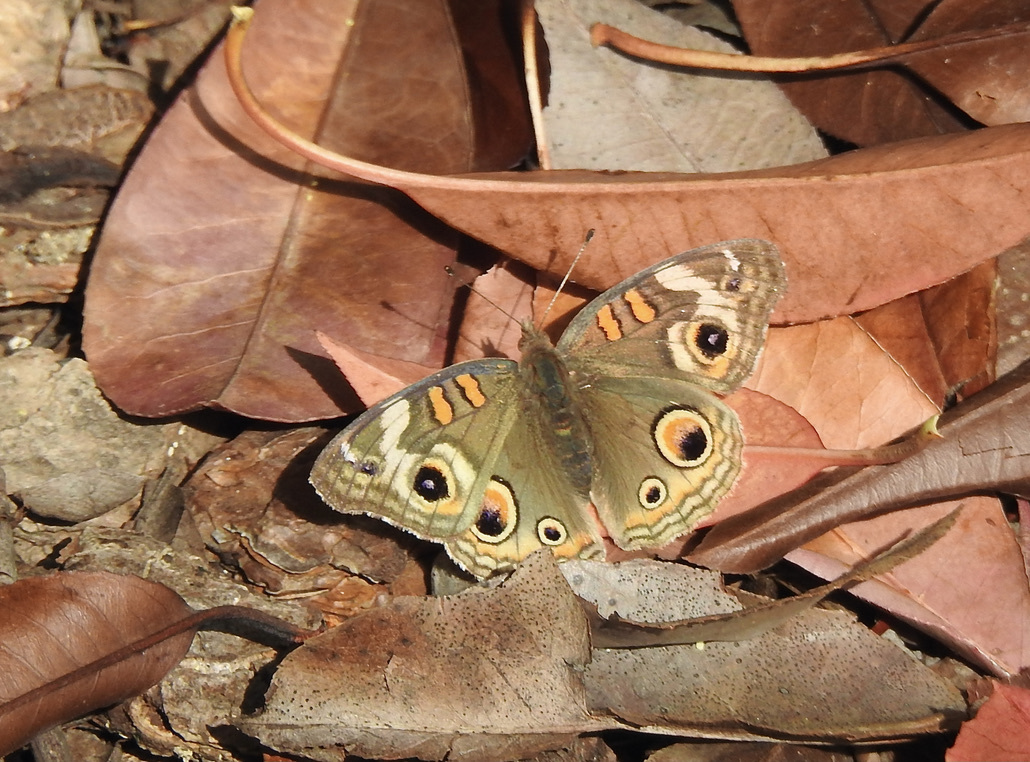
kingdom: Animalia
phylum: Arthropoda
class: Insecta
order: Lepidoptera
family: Nymphalidae
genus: Junonia
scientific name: Junonia grisea
